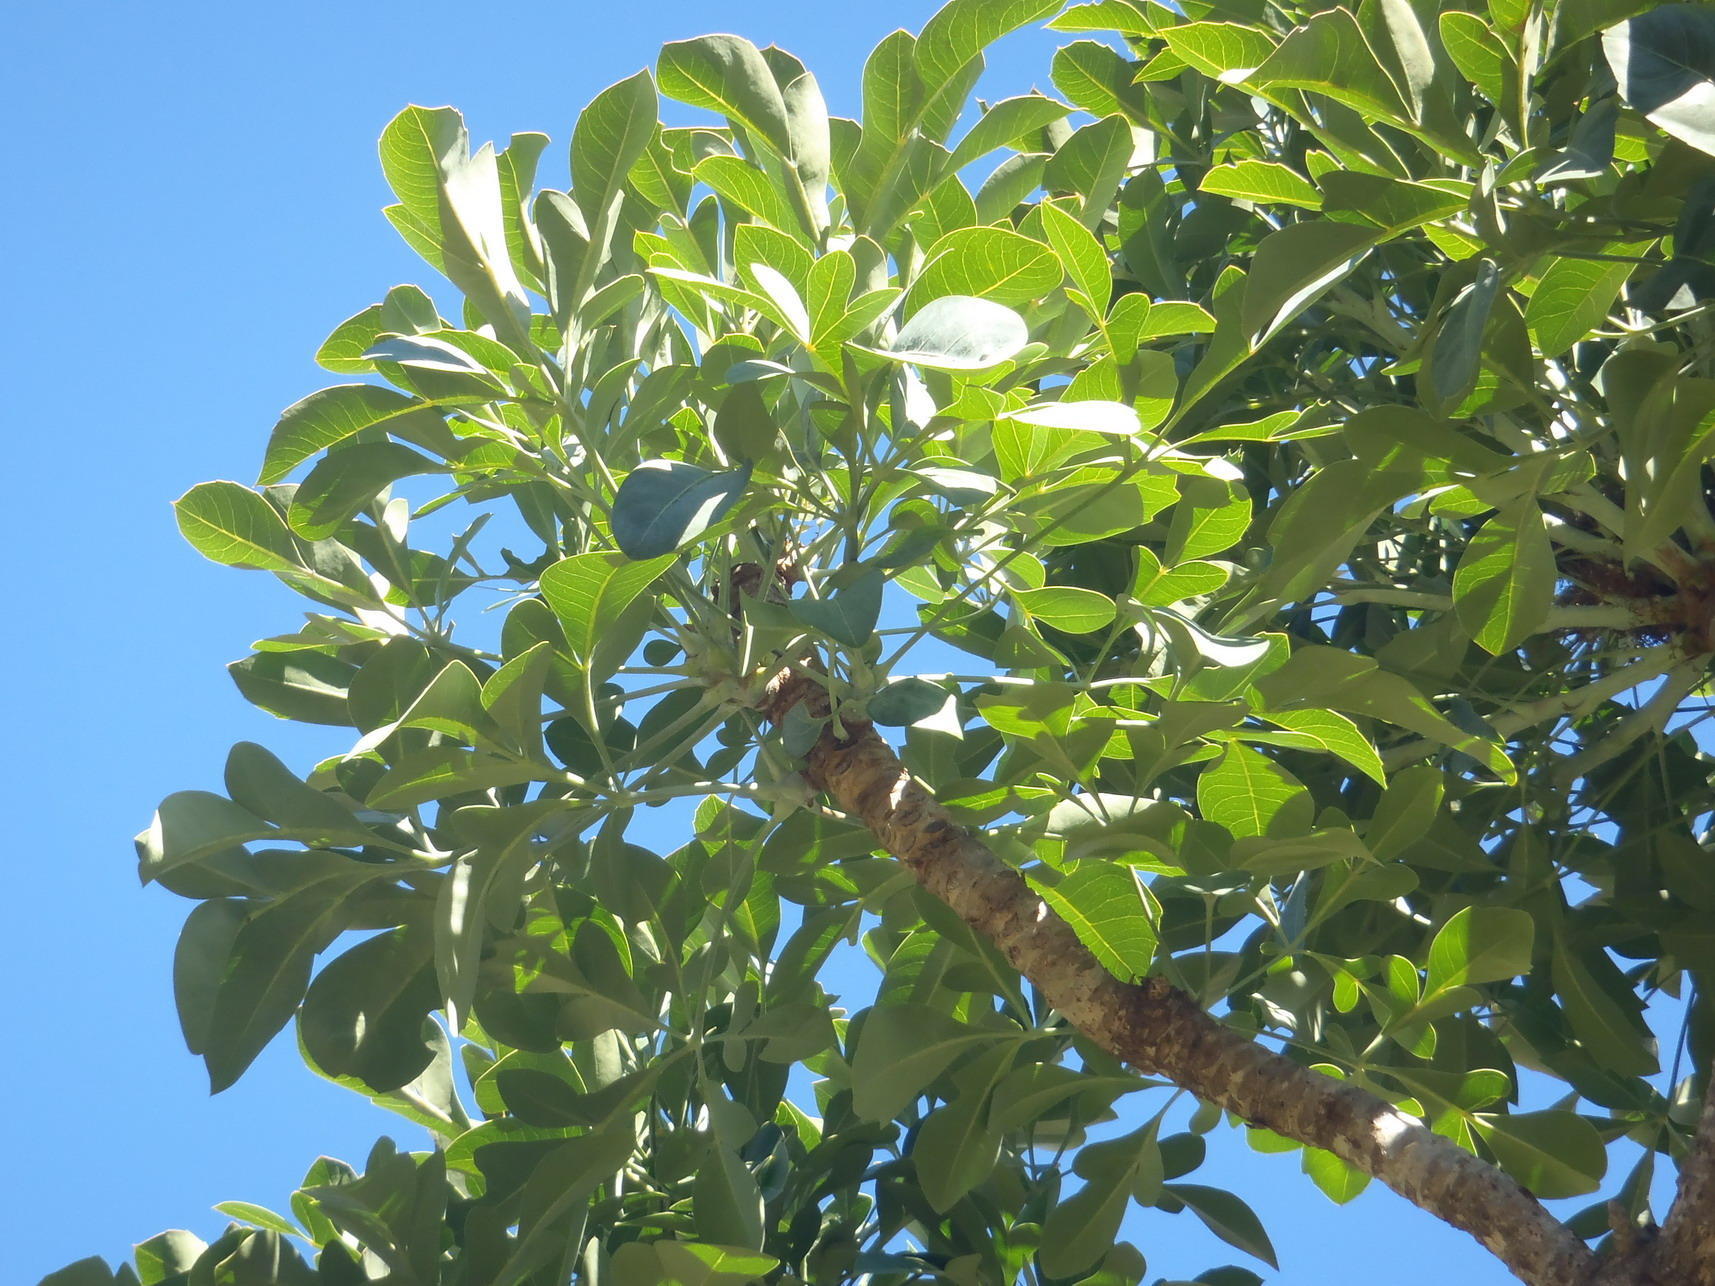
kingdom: Plantae
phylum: Tracheophyta
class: Magnoliopsida
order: Apiales
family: Araliaceae
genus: Cussonia
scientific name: Cussonia spicata
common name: Common cabbagetree
